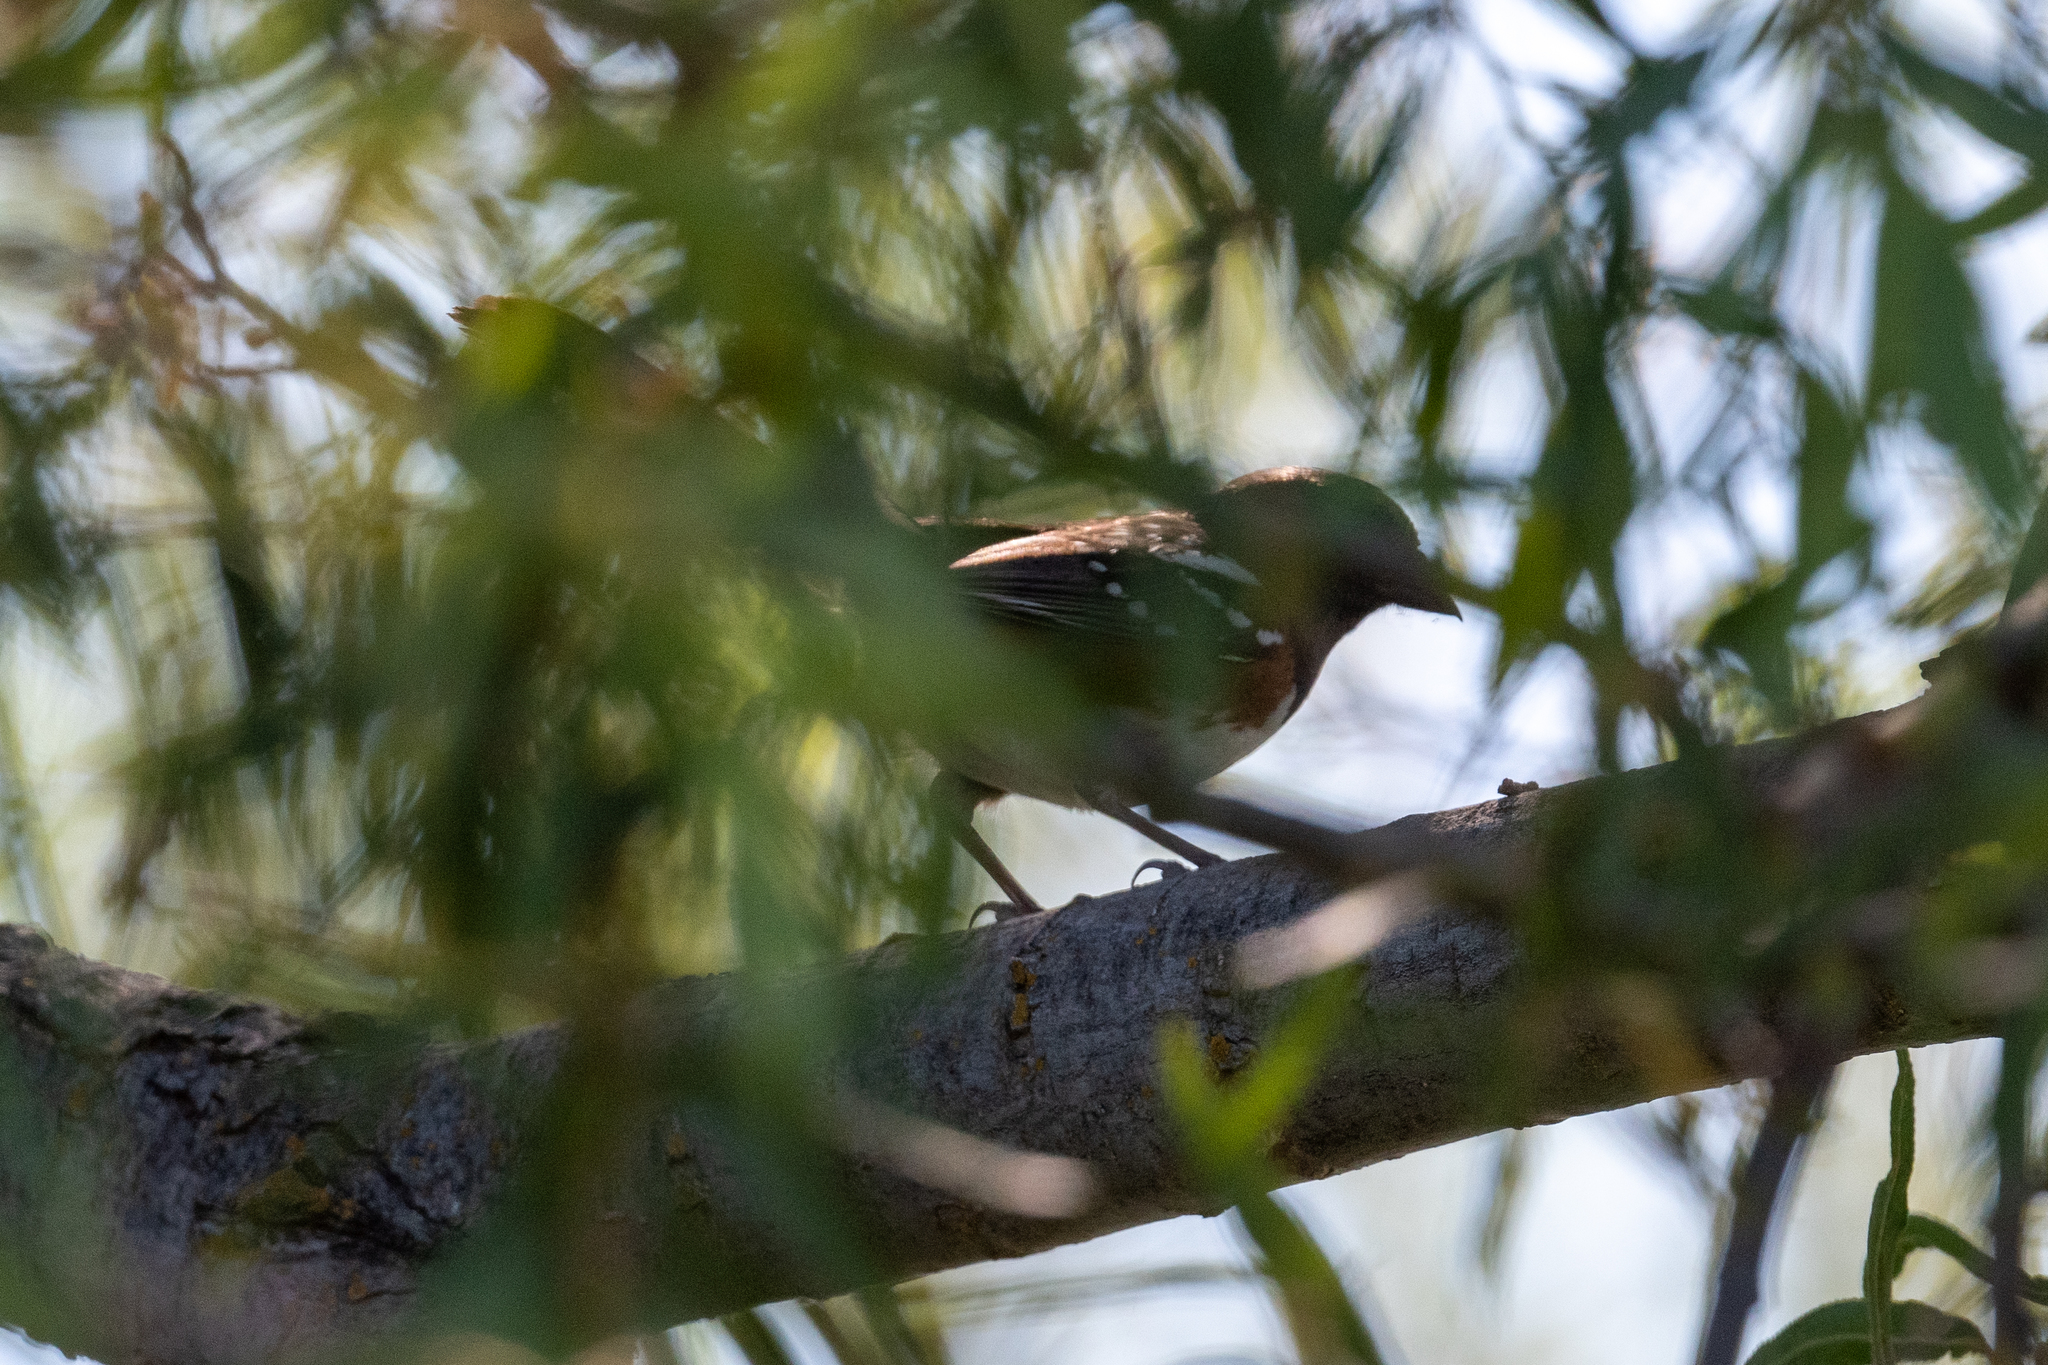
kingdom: Animalia
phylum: Chordata
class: Aves
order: Passeriformes
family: Passerellidae
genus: Pipilo
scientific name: Pipilo maculatus
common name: Spotted towhee
